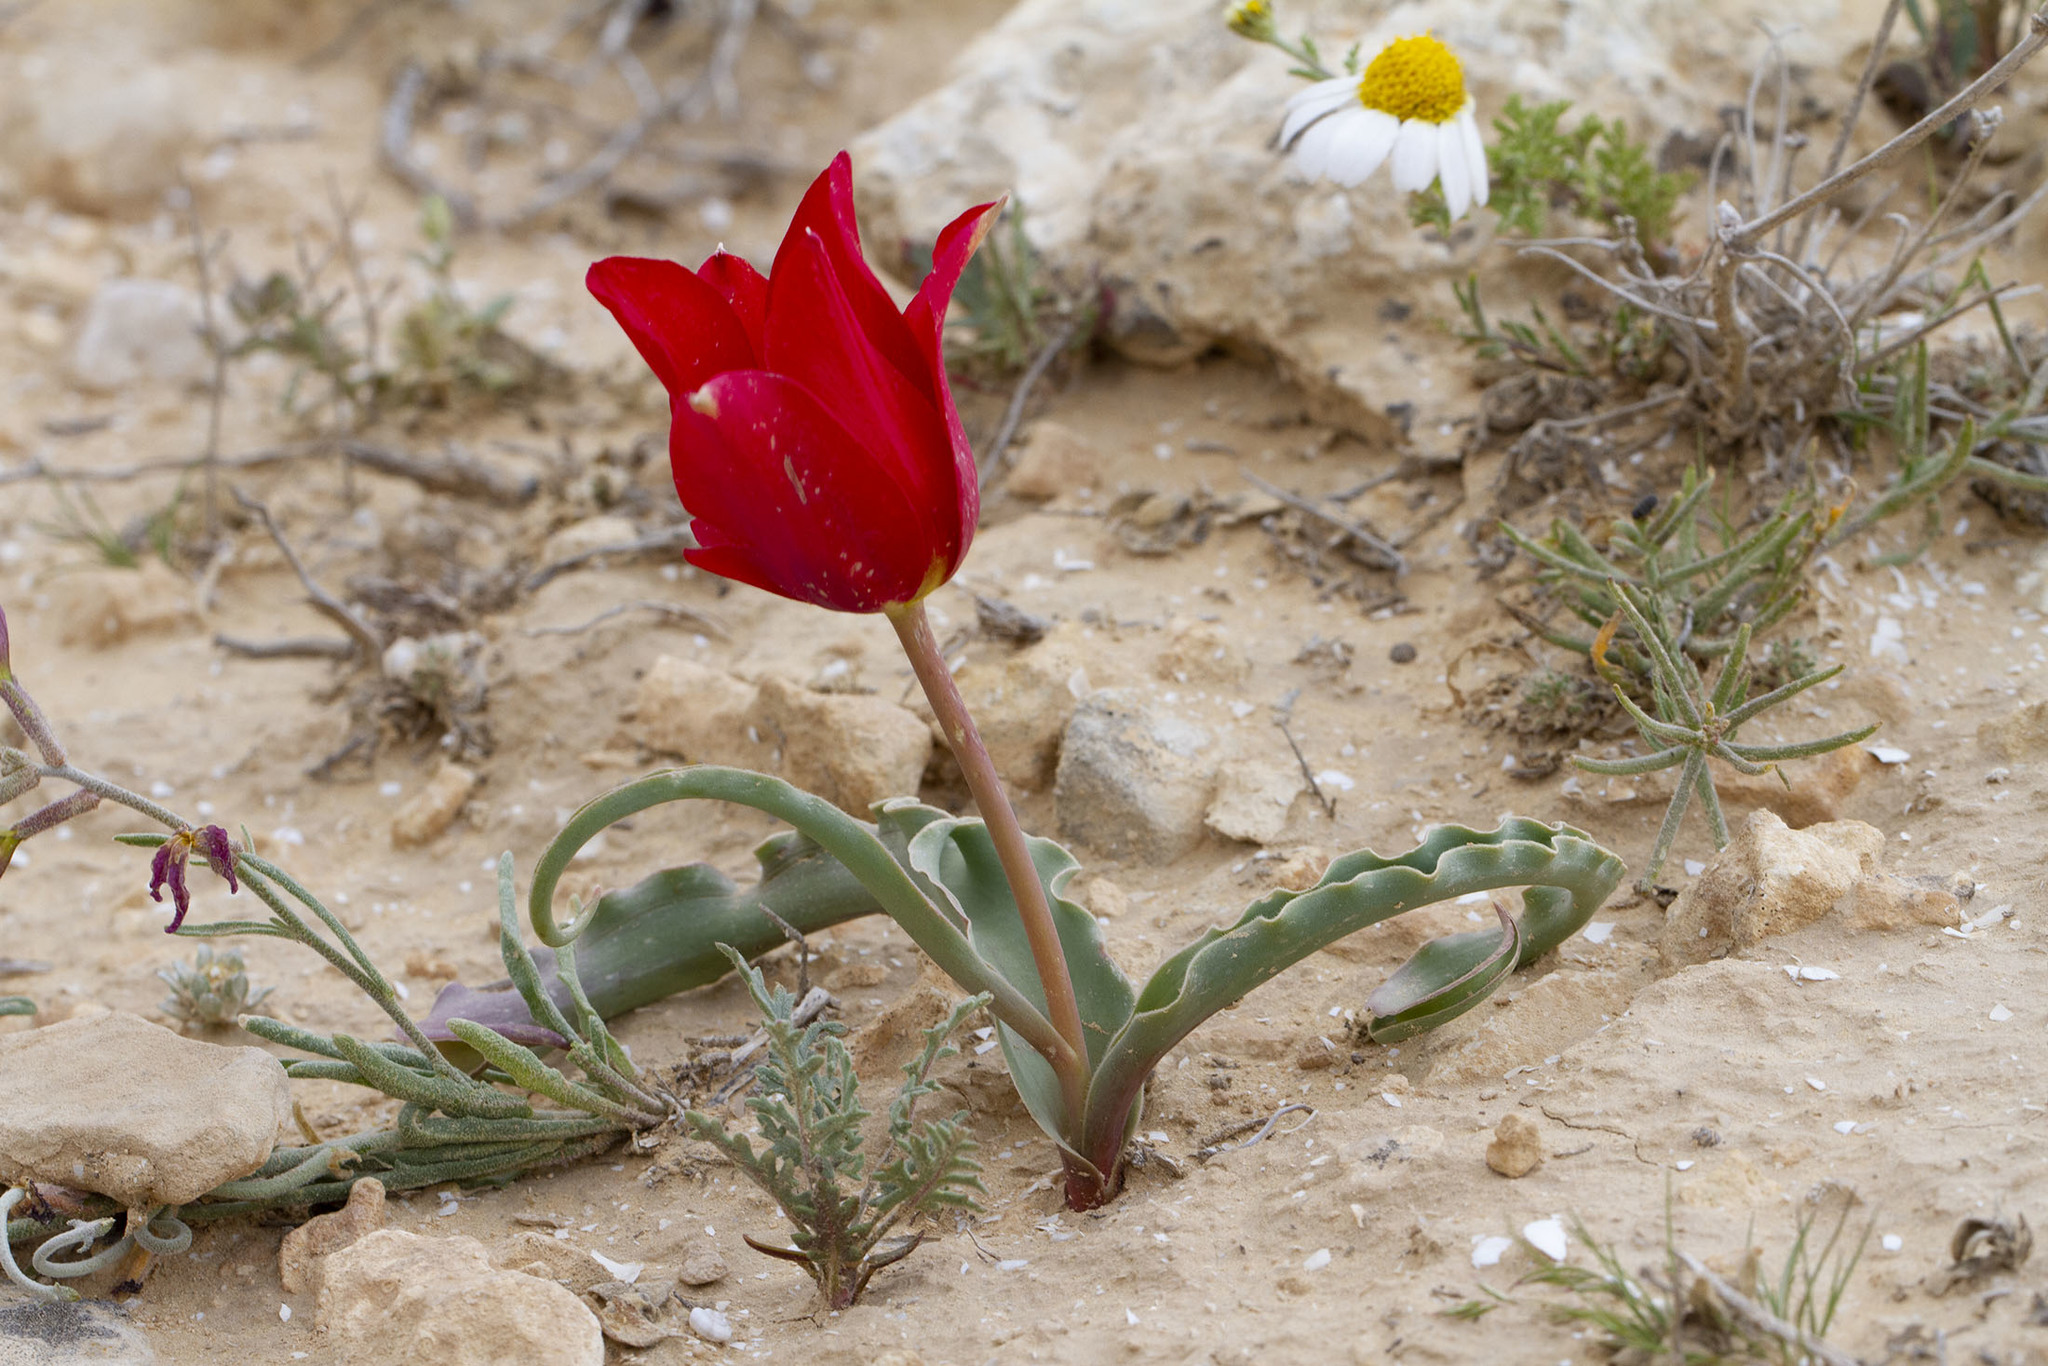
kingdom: Plantae
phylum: Tracheophyta
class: Liliopsida
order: Liliales
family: Liliaceae
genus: Tulipa
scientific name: Tulipa systola
